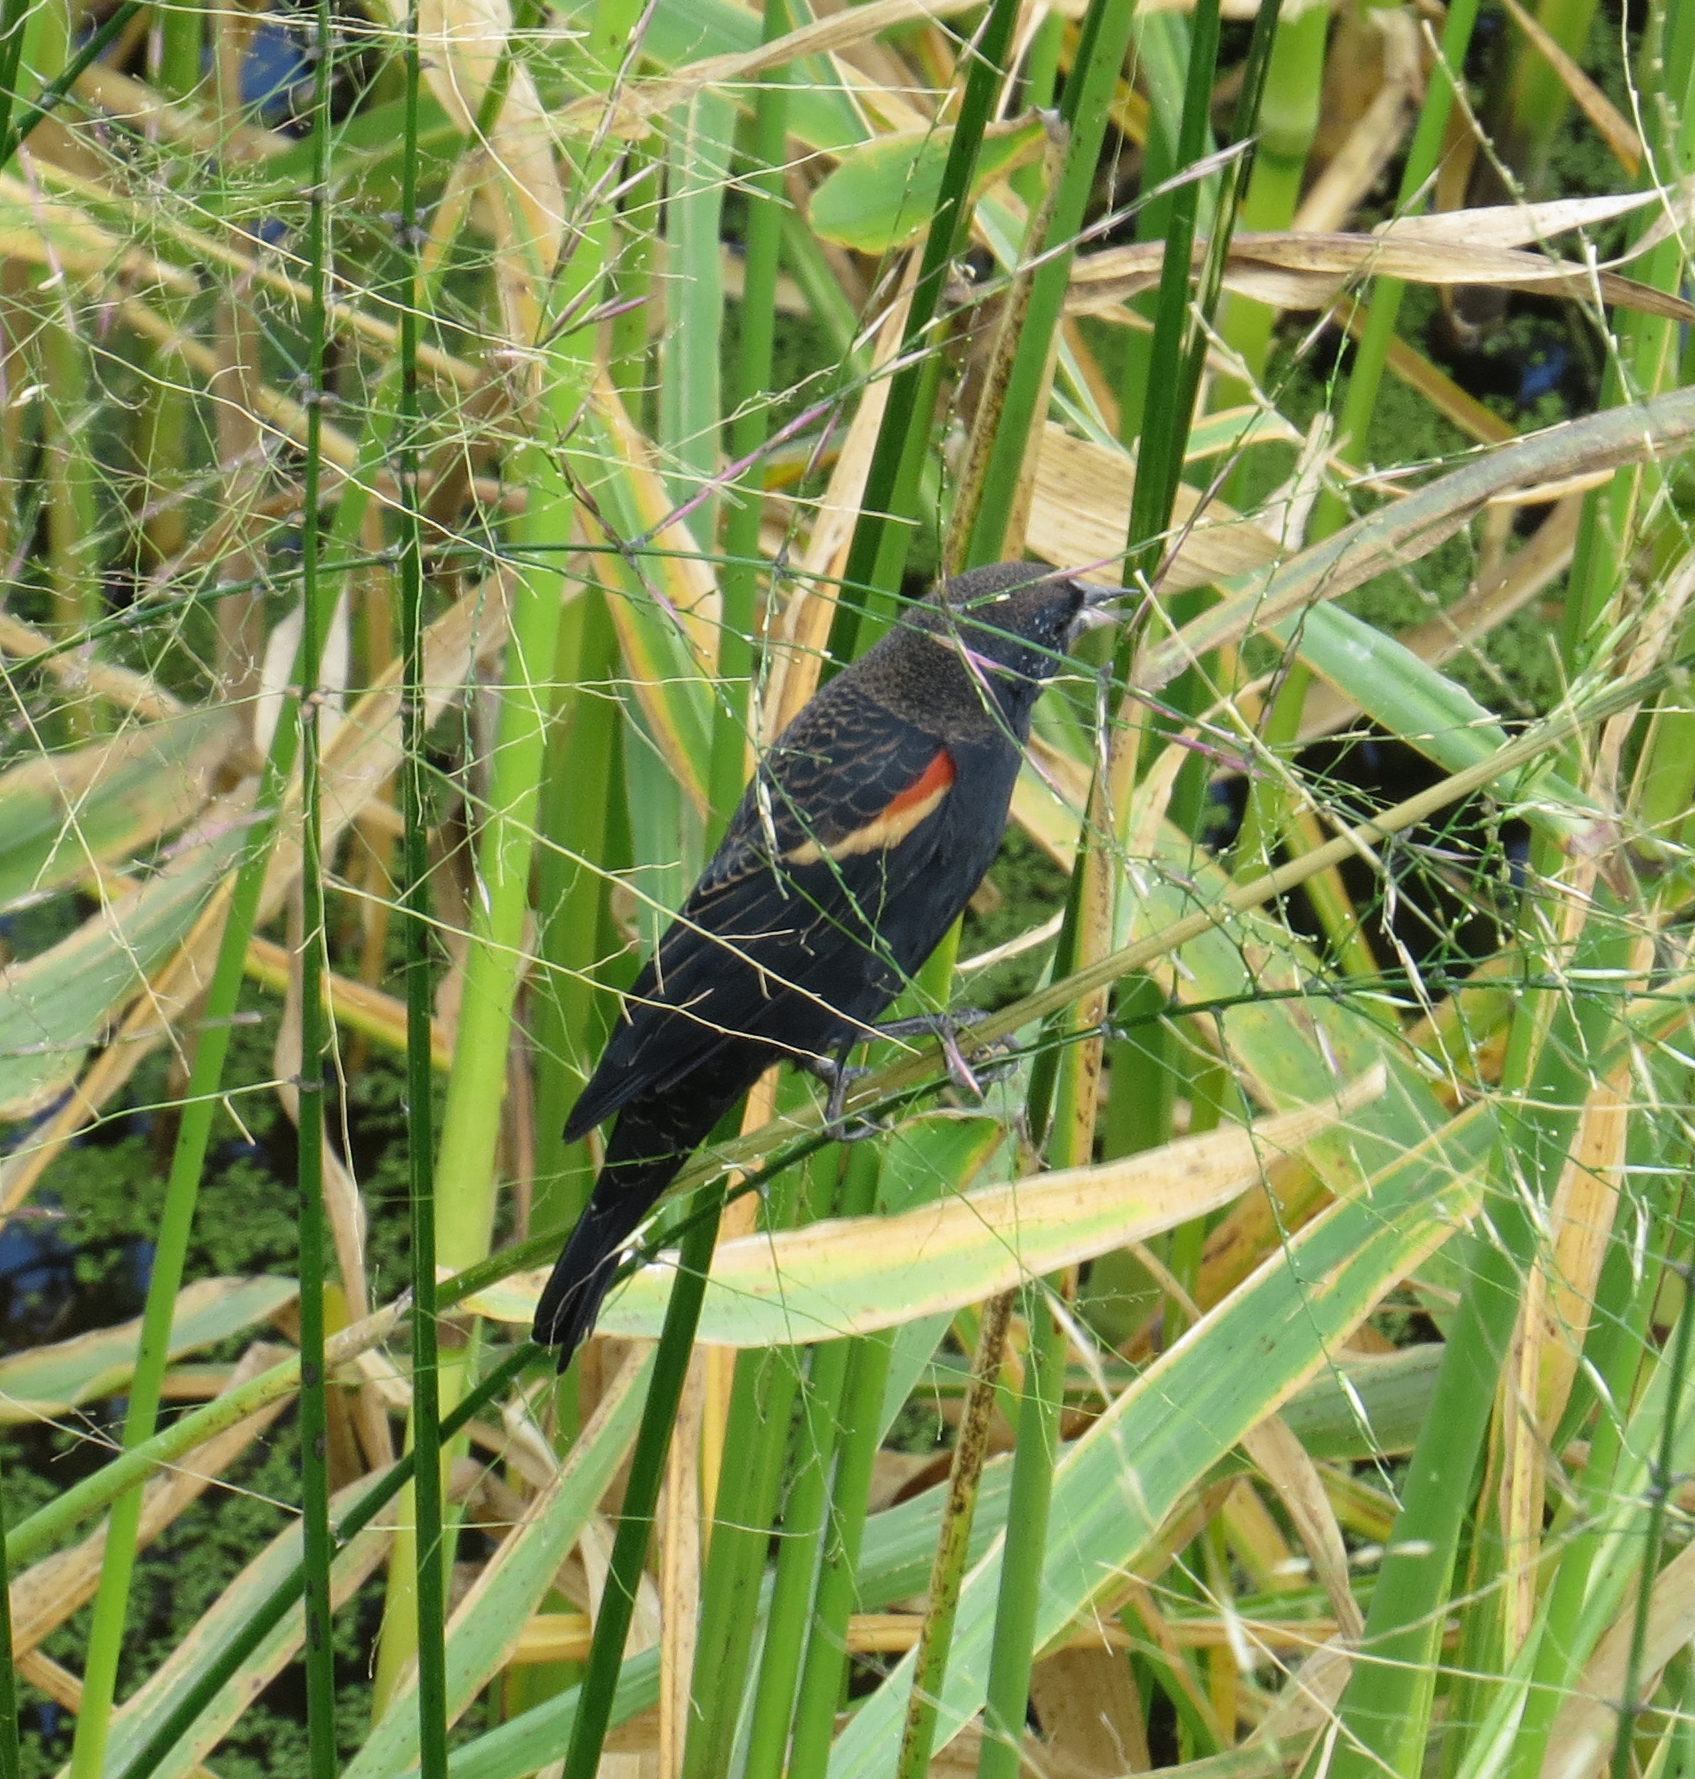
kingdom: Animalia
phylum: Chordata
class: Aves
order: Passeriformes
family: Icteridae
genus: Agelaius
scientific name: Agelaius phoeniceus
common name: Red-winged blackbird
